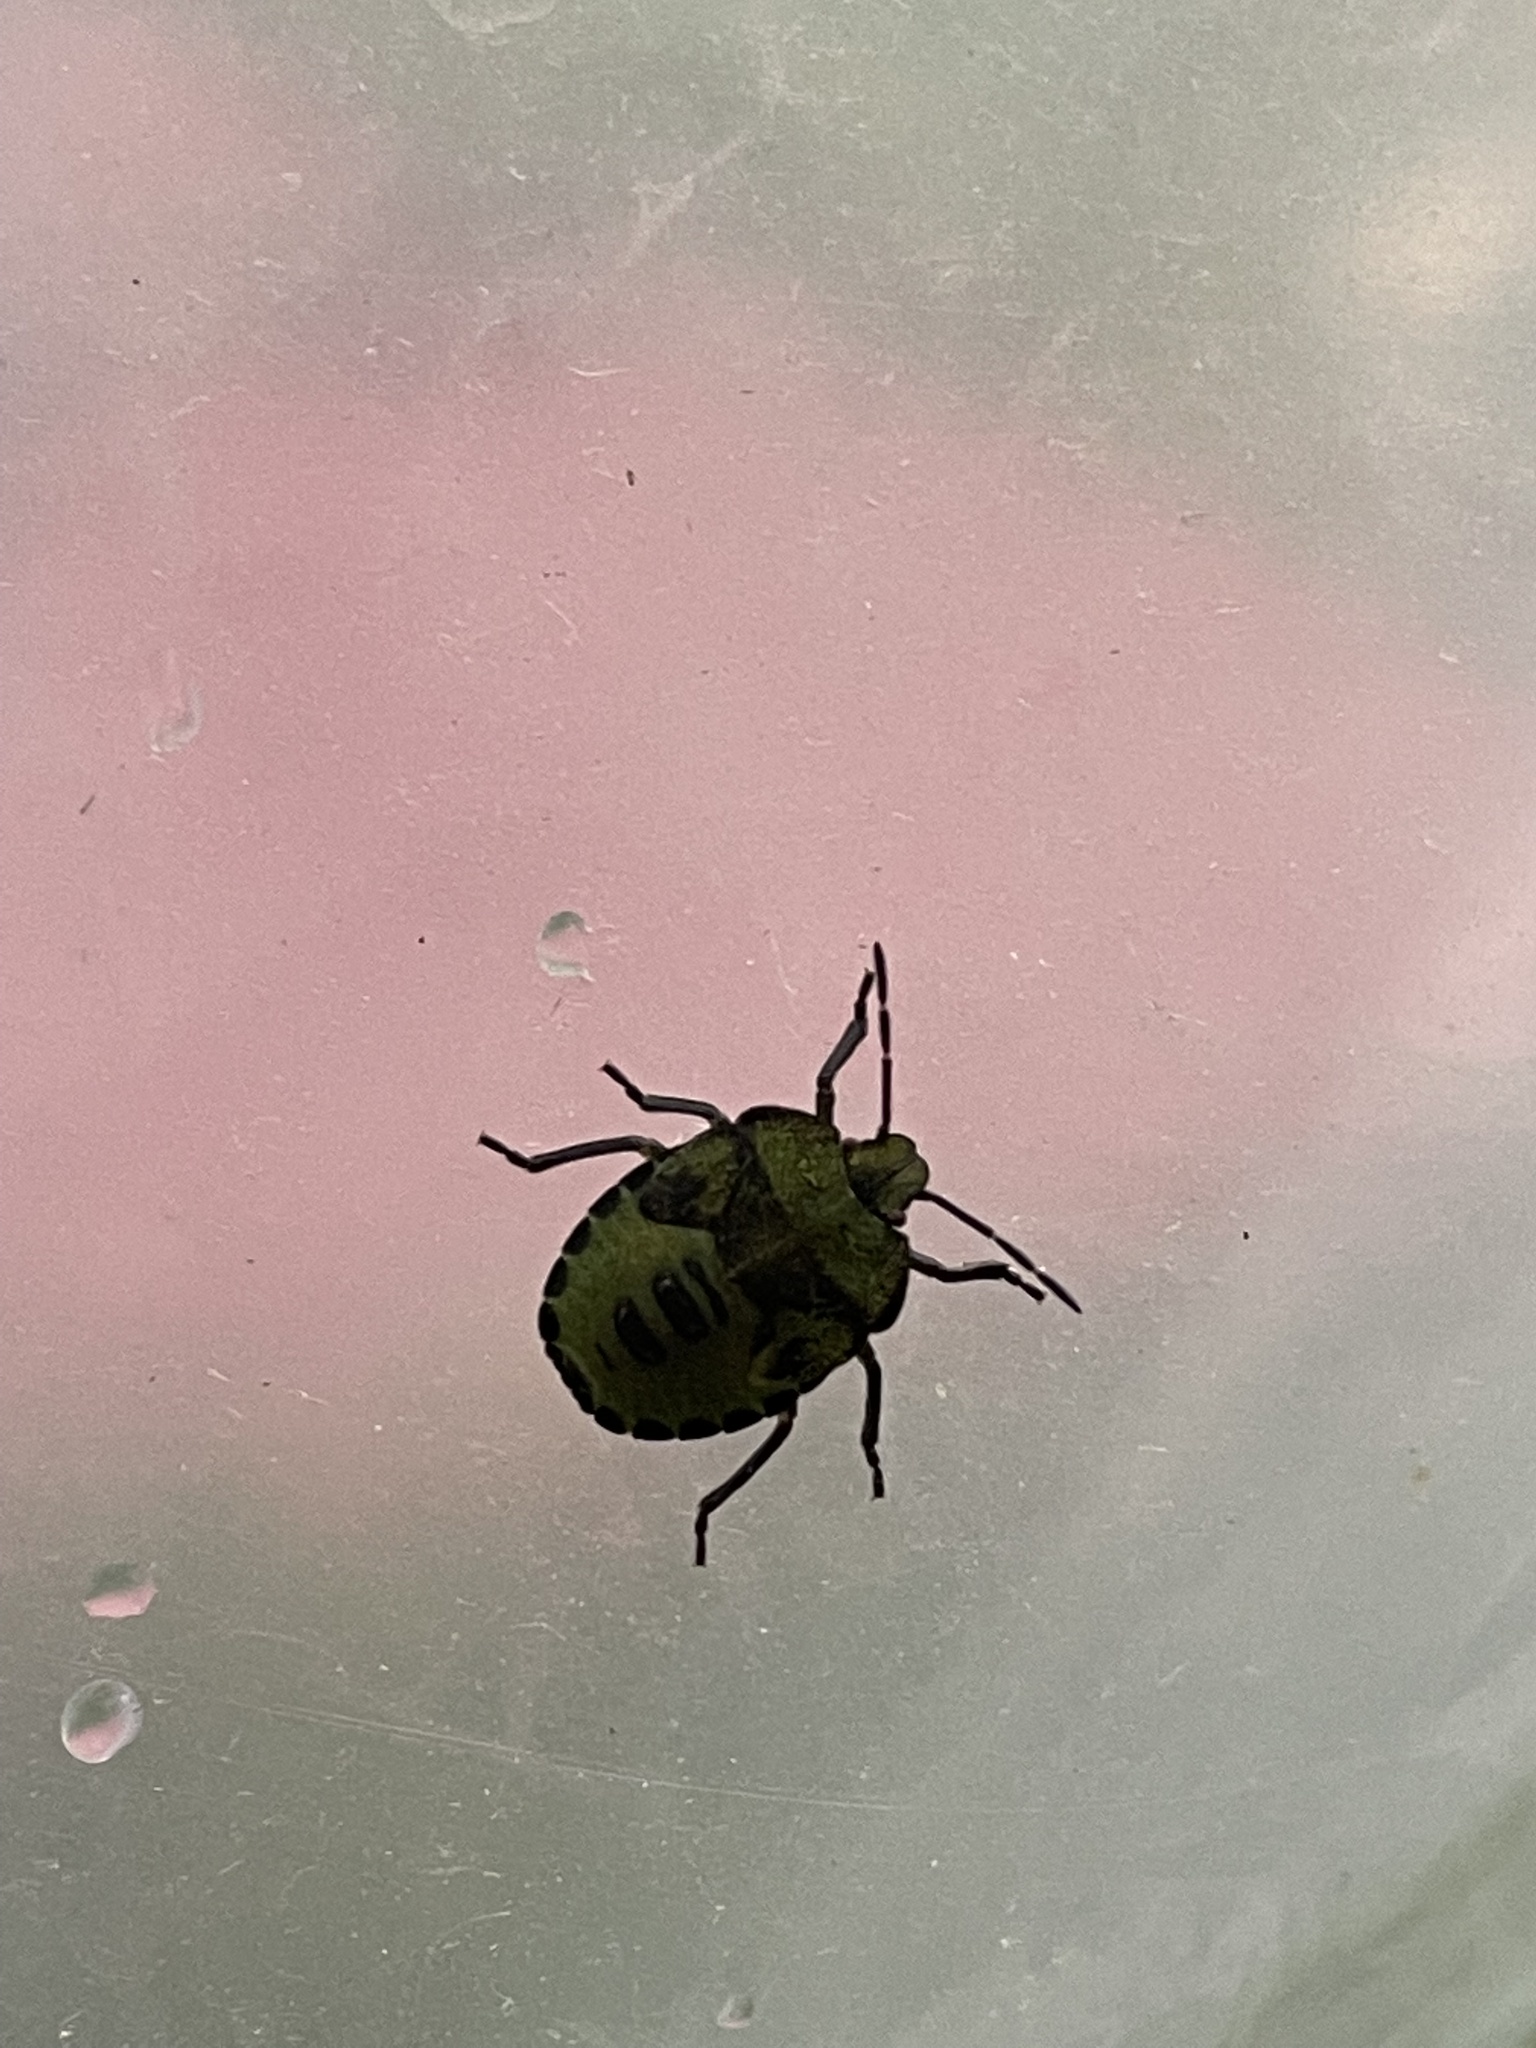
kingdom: Animalia
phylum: Arthropoda
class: Insecta
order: Hemiptera
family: Pentatomidae
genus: Palomena
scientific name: Palomena prasina
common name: Green shieldbug
